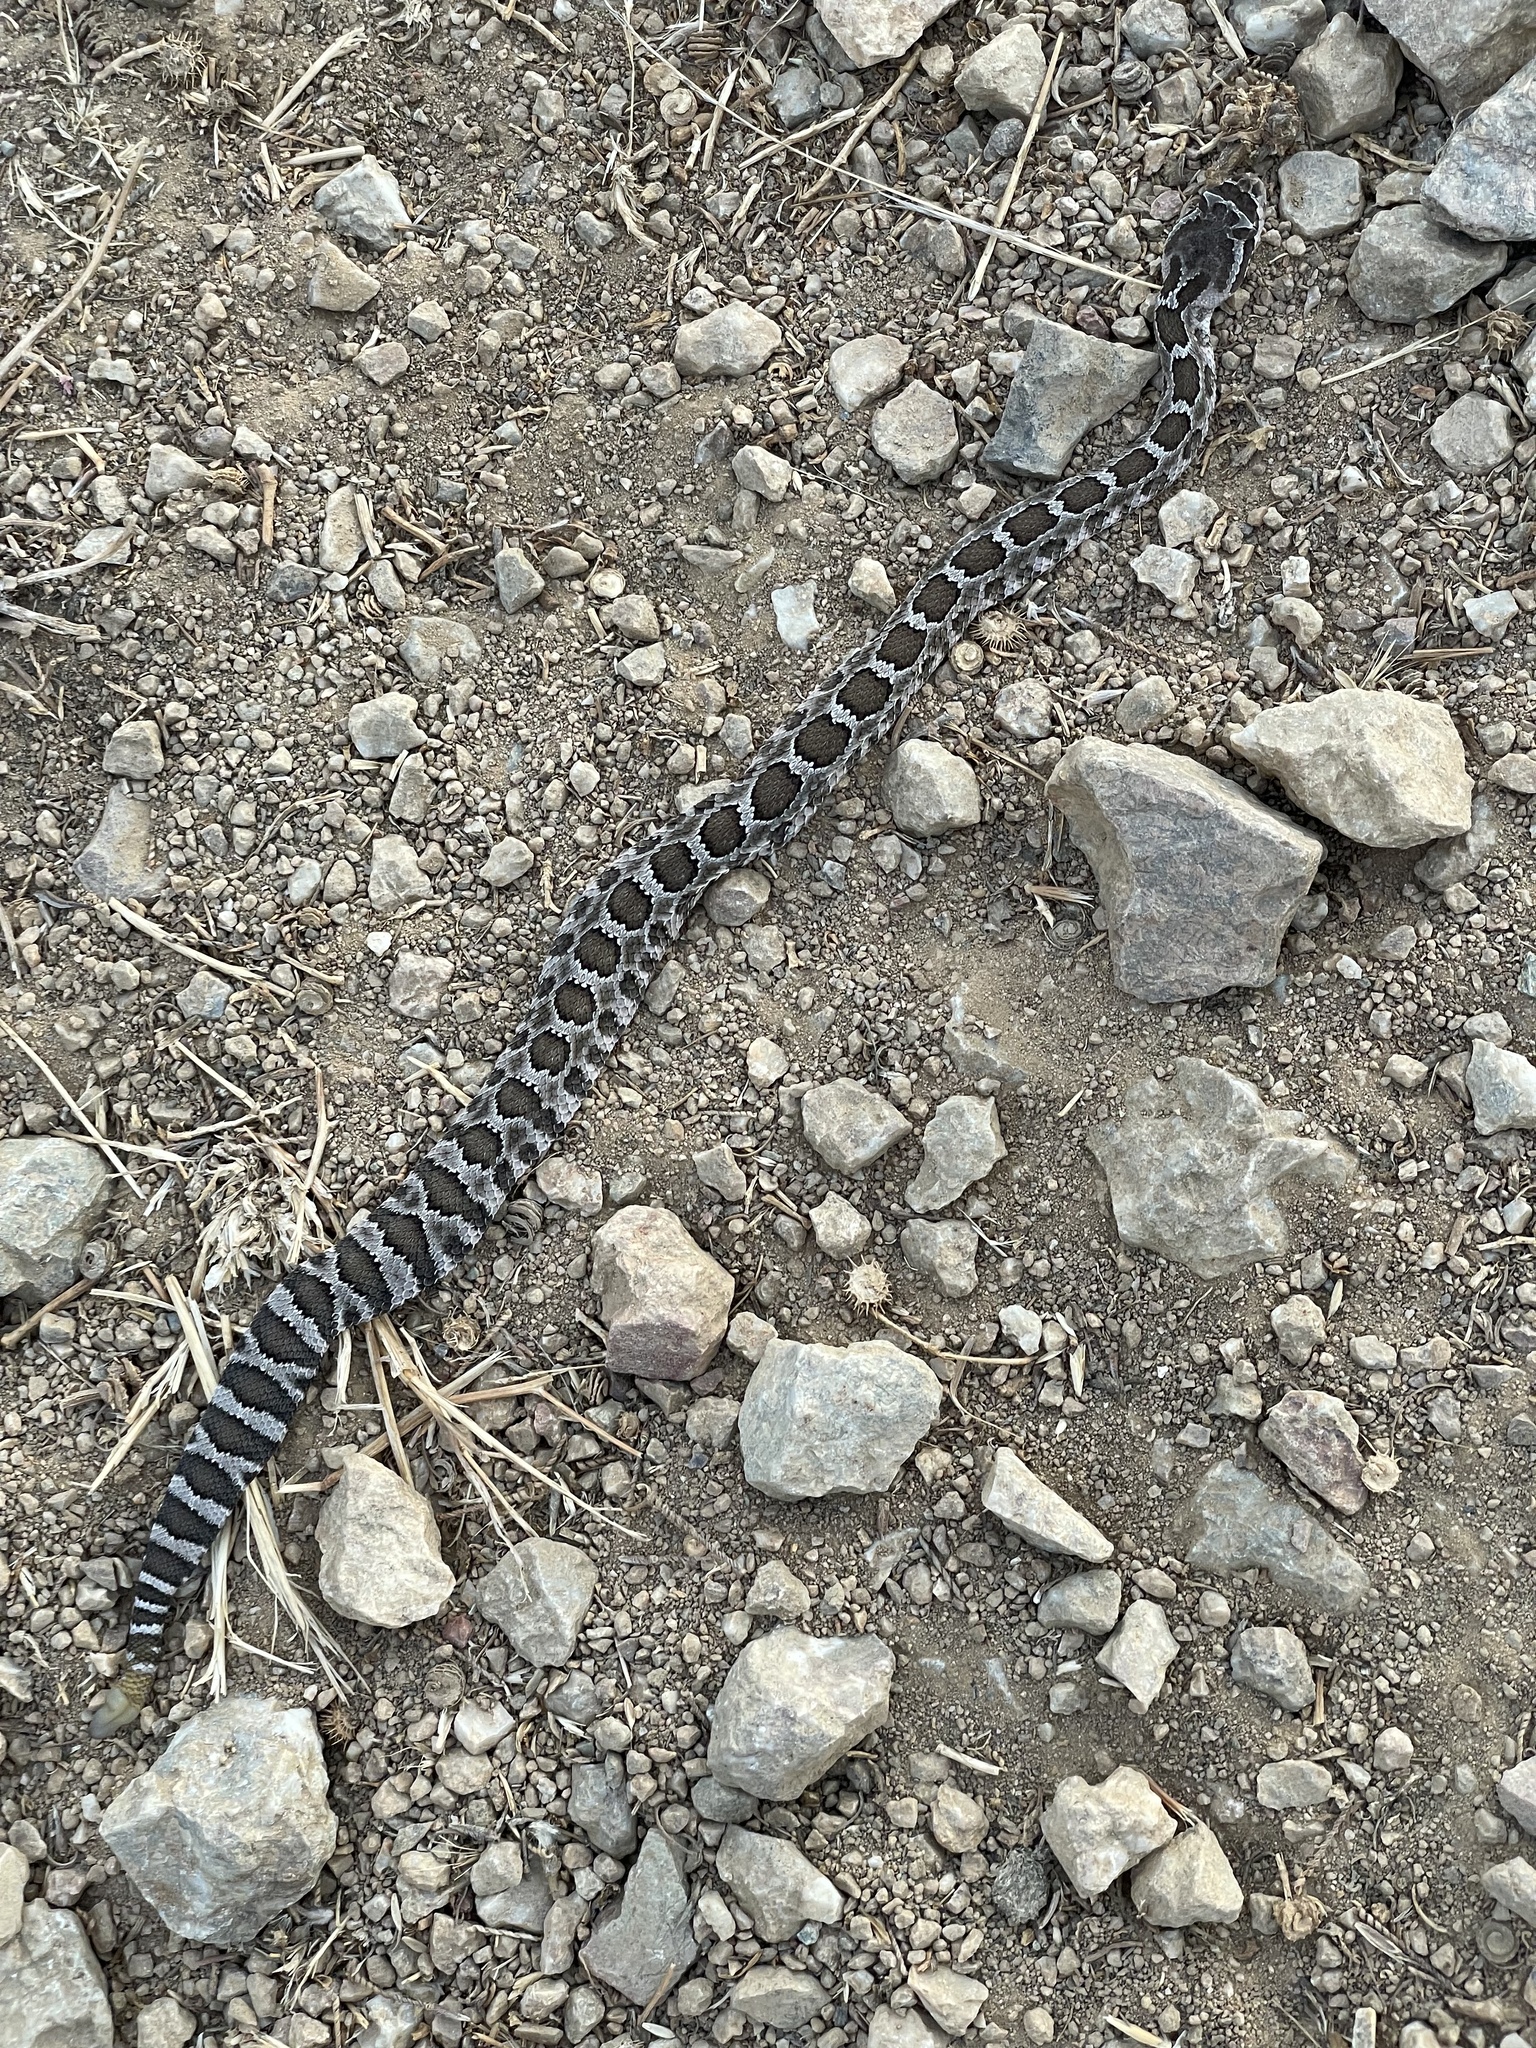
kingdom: Animalia
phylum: Chordata
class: Squamata
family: Viperidae
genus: Crotalus
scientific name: Crotalus oreganus
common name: Abyssus
